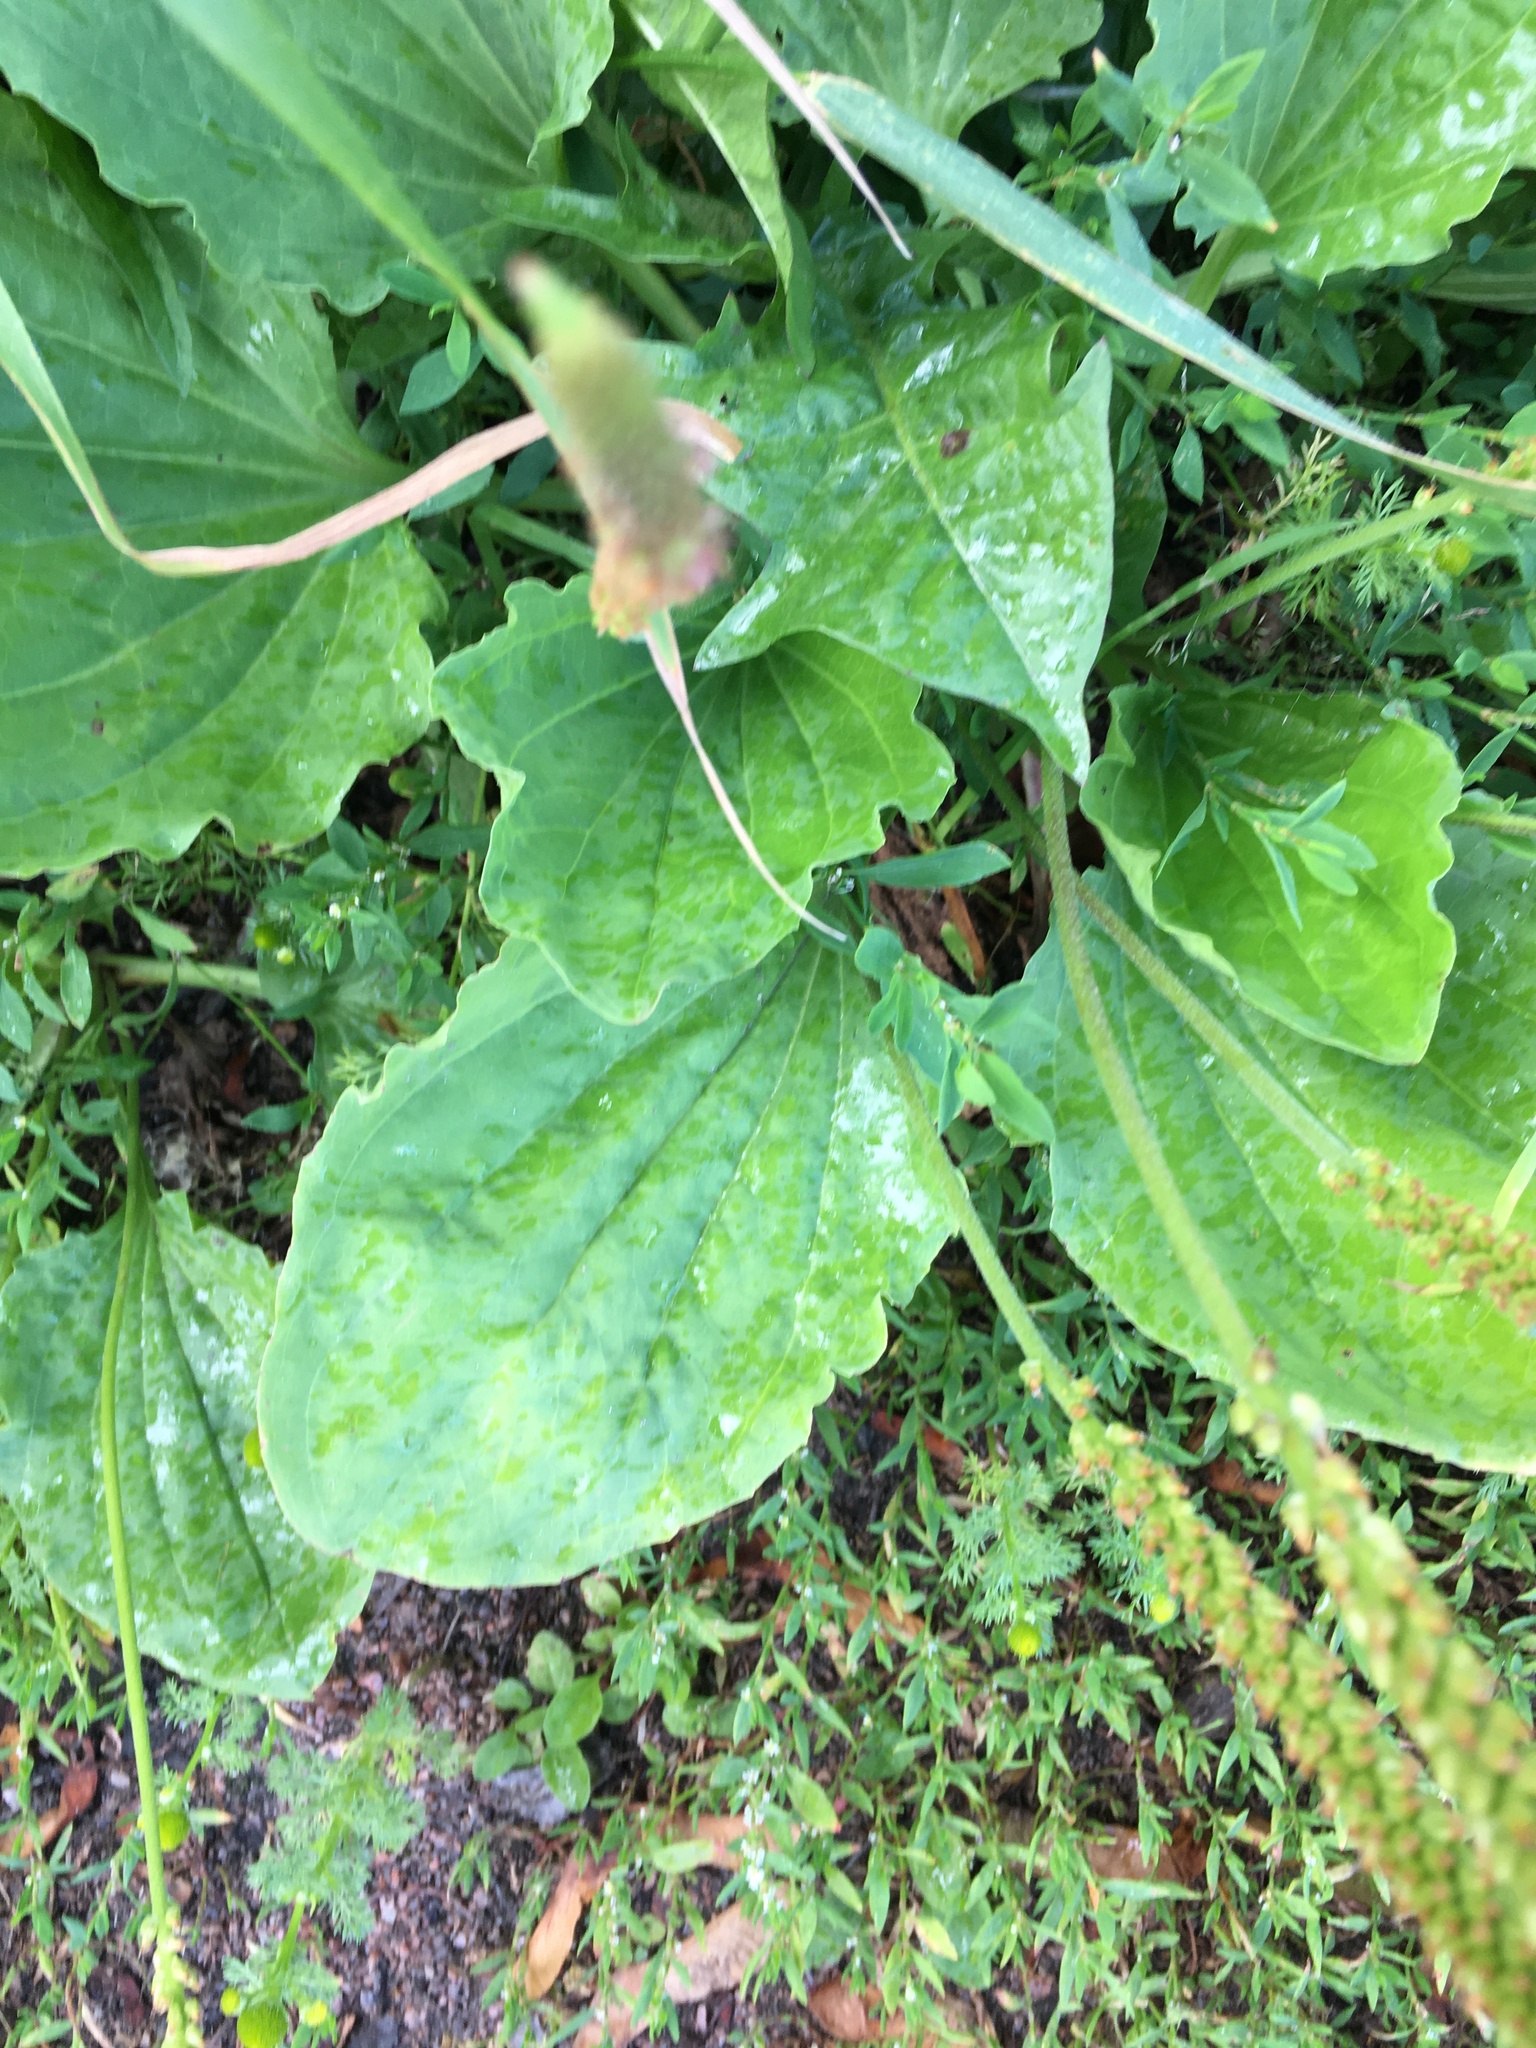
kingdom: Plantae
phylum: Tracheophyta
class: Magnoliopsida
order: Lamiales
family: Plantaginaceae
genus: Plantago
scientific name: Plantago major
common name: Common plantain
